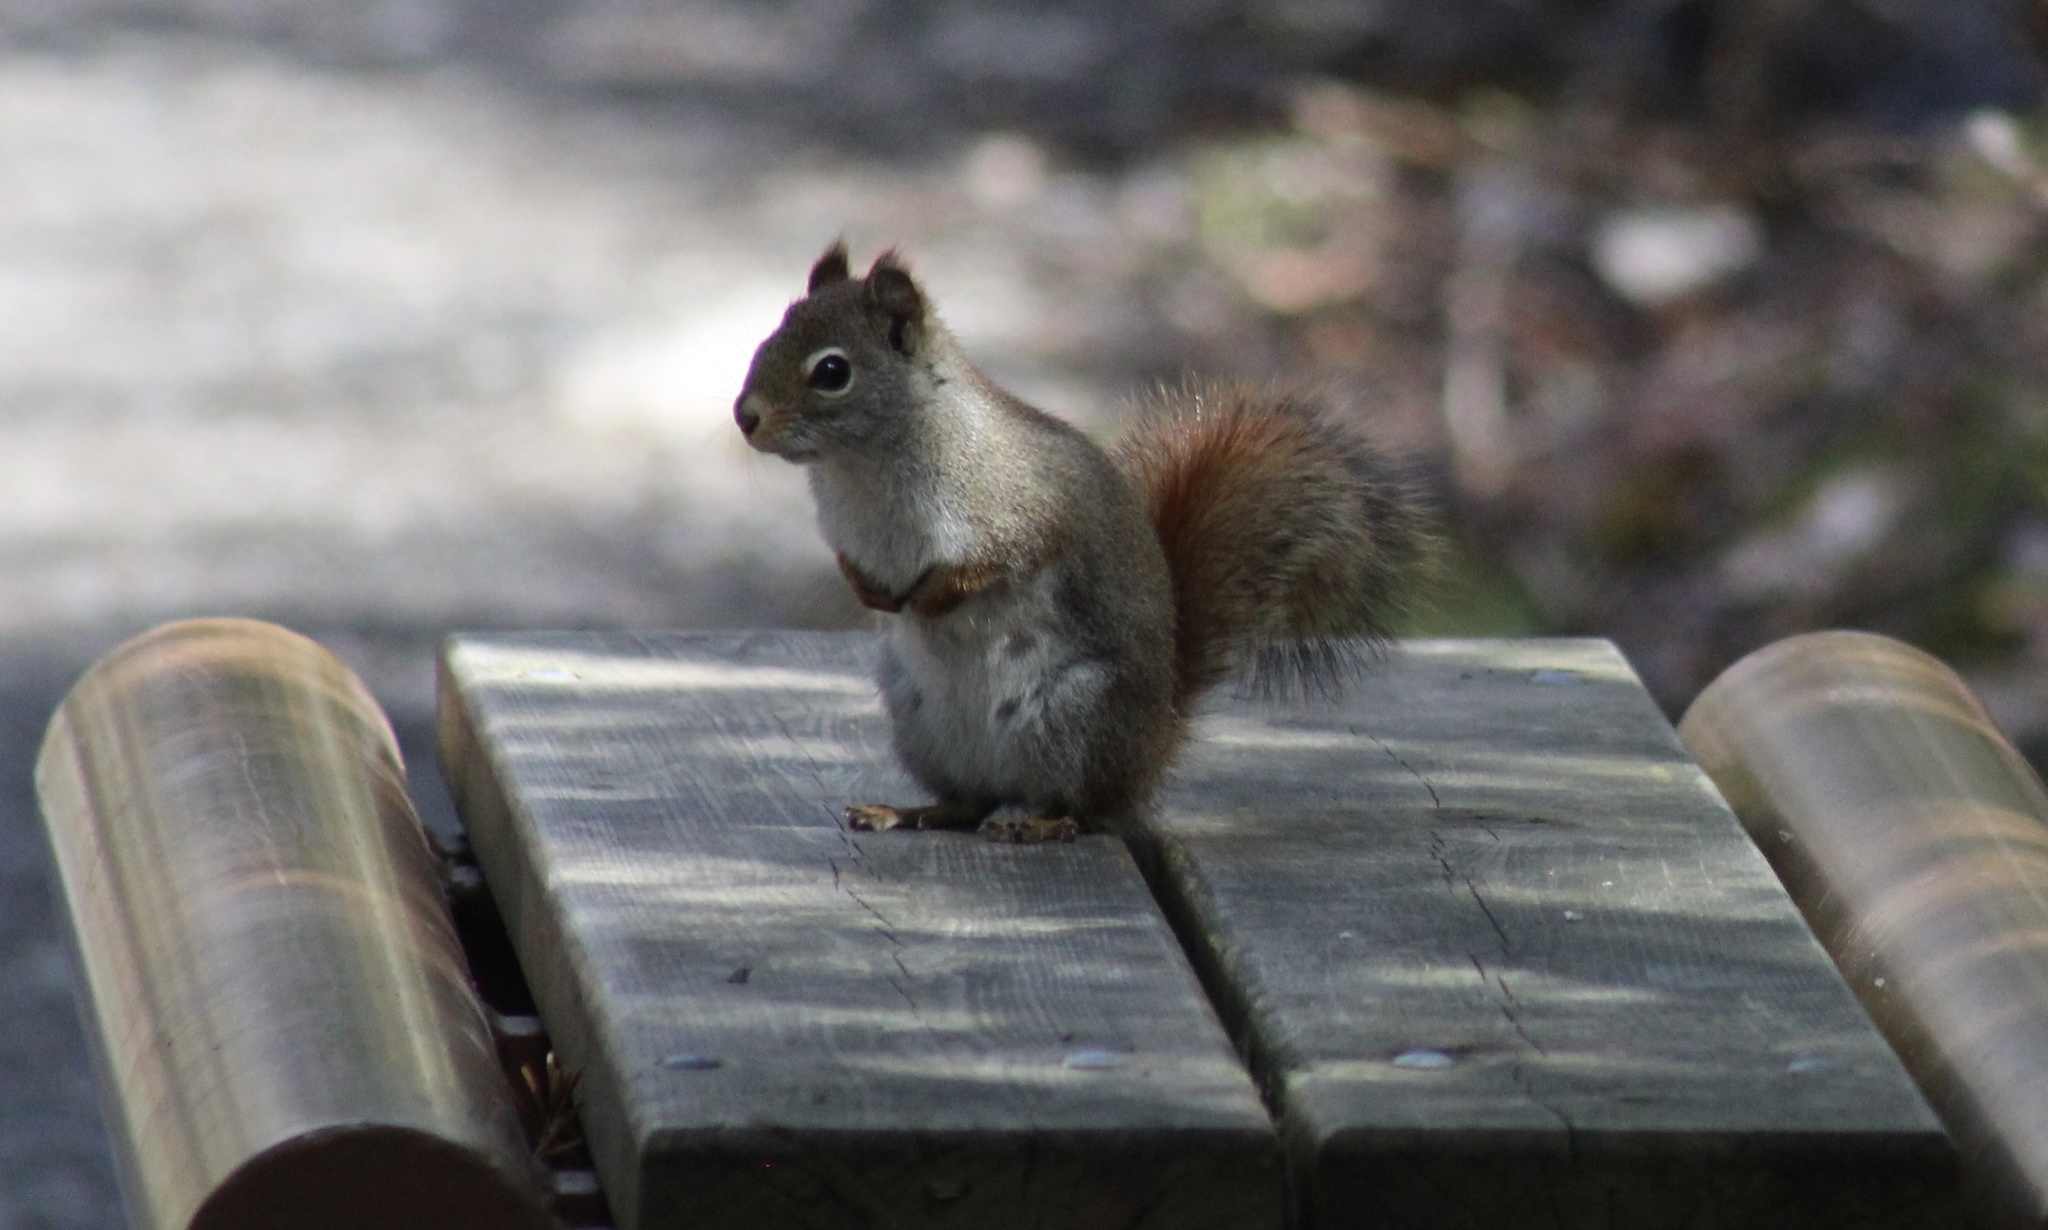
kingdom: Animalia
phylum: Chordata
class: Mammalia
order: Rodentia
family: Sciuridae
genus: Tamiasciurus
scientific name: Tamiasciurus hudsonicus
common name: Red squirrel
